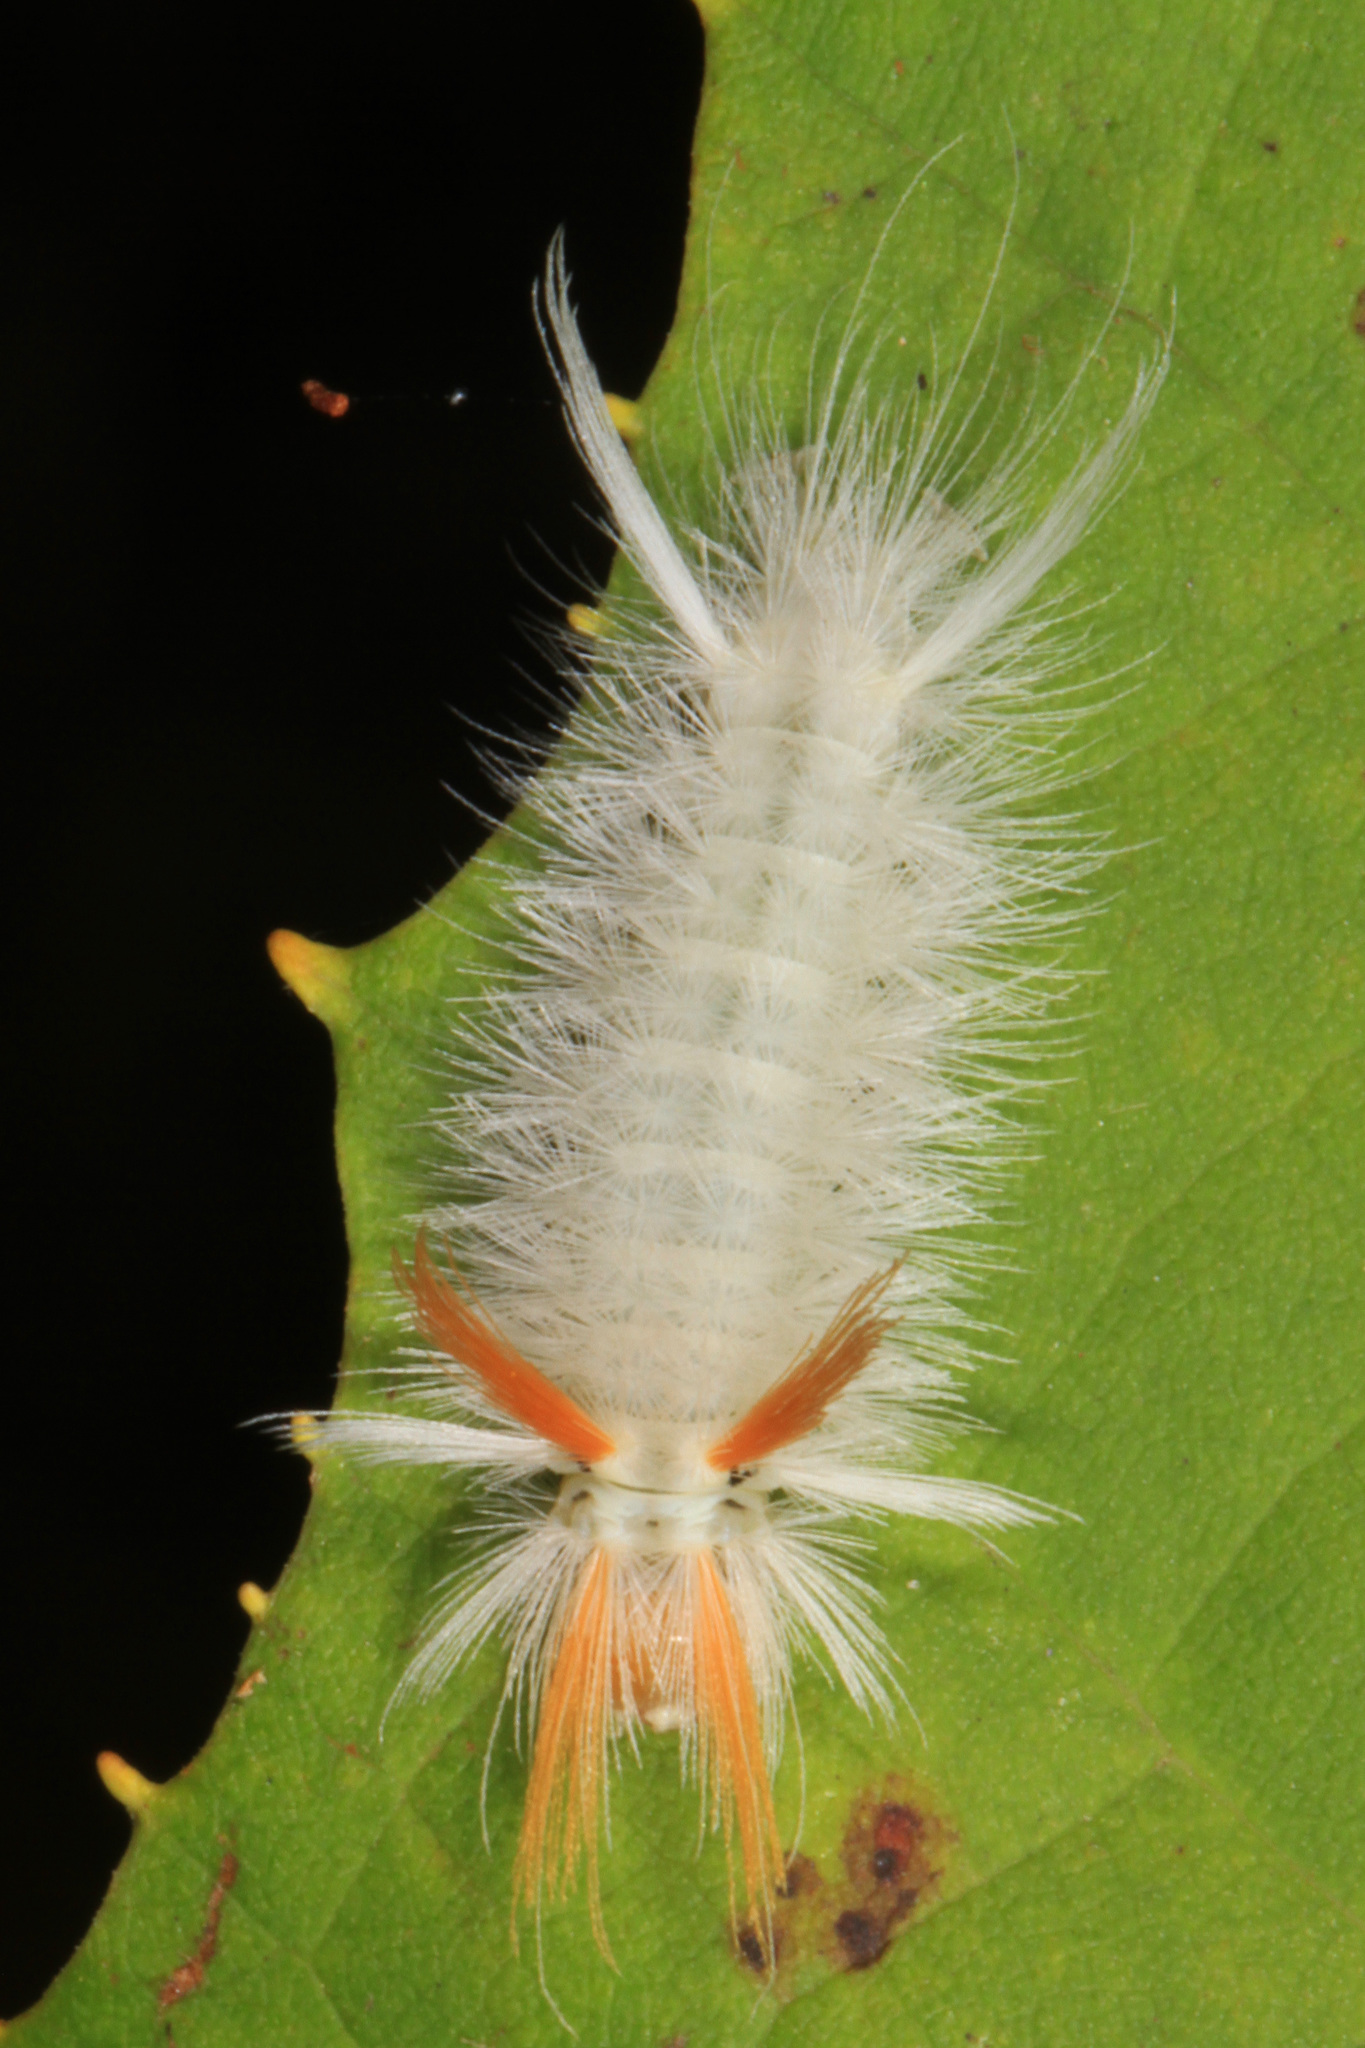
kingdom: Animalia
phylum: Arthropoda
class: Insecta
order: Lepidoptera
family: Erebidae
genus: Halysidota
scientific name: Halysidota harrisii
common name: Sycamore tussock moth
